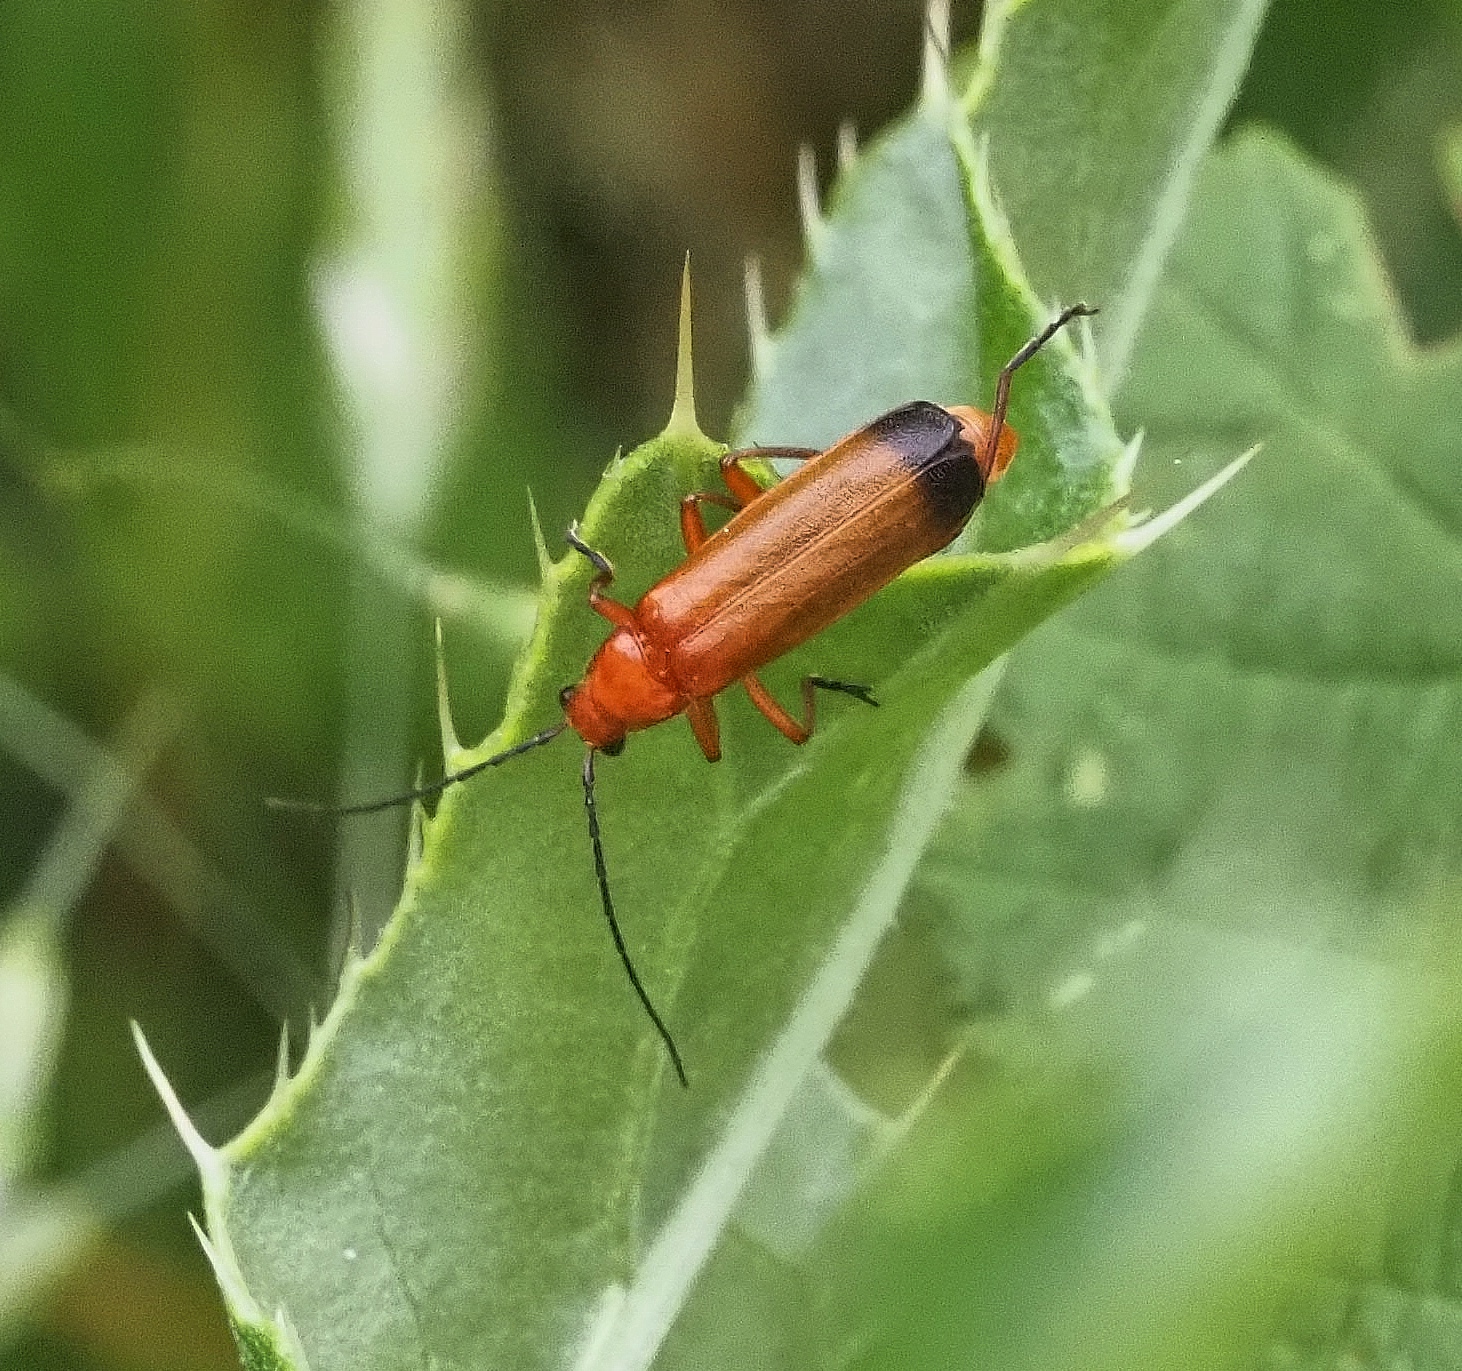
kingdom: Animalia
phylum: Arthropoda
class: Insecta
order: Coleoptera
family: Cantharidae
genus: Rhagonycha
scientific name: Rhagonycha fulva
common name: Common red soldier beetle
